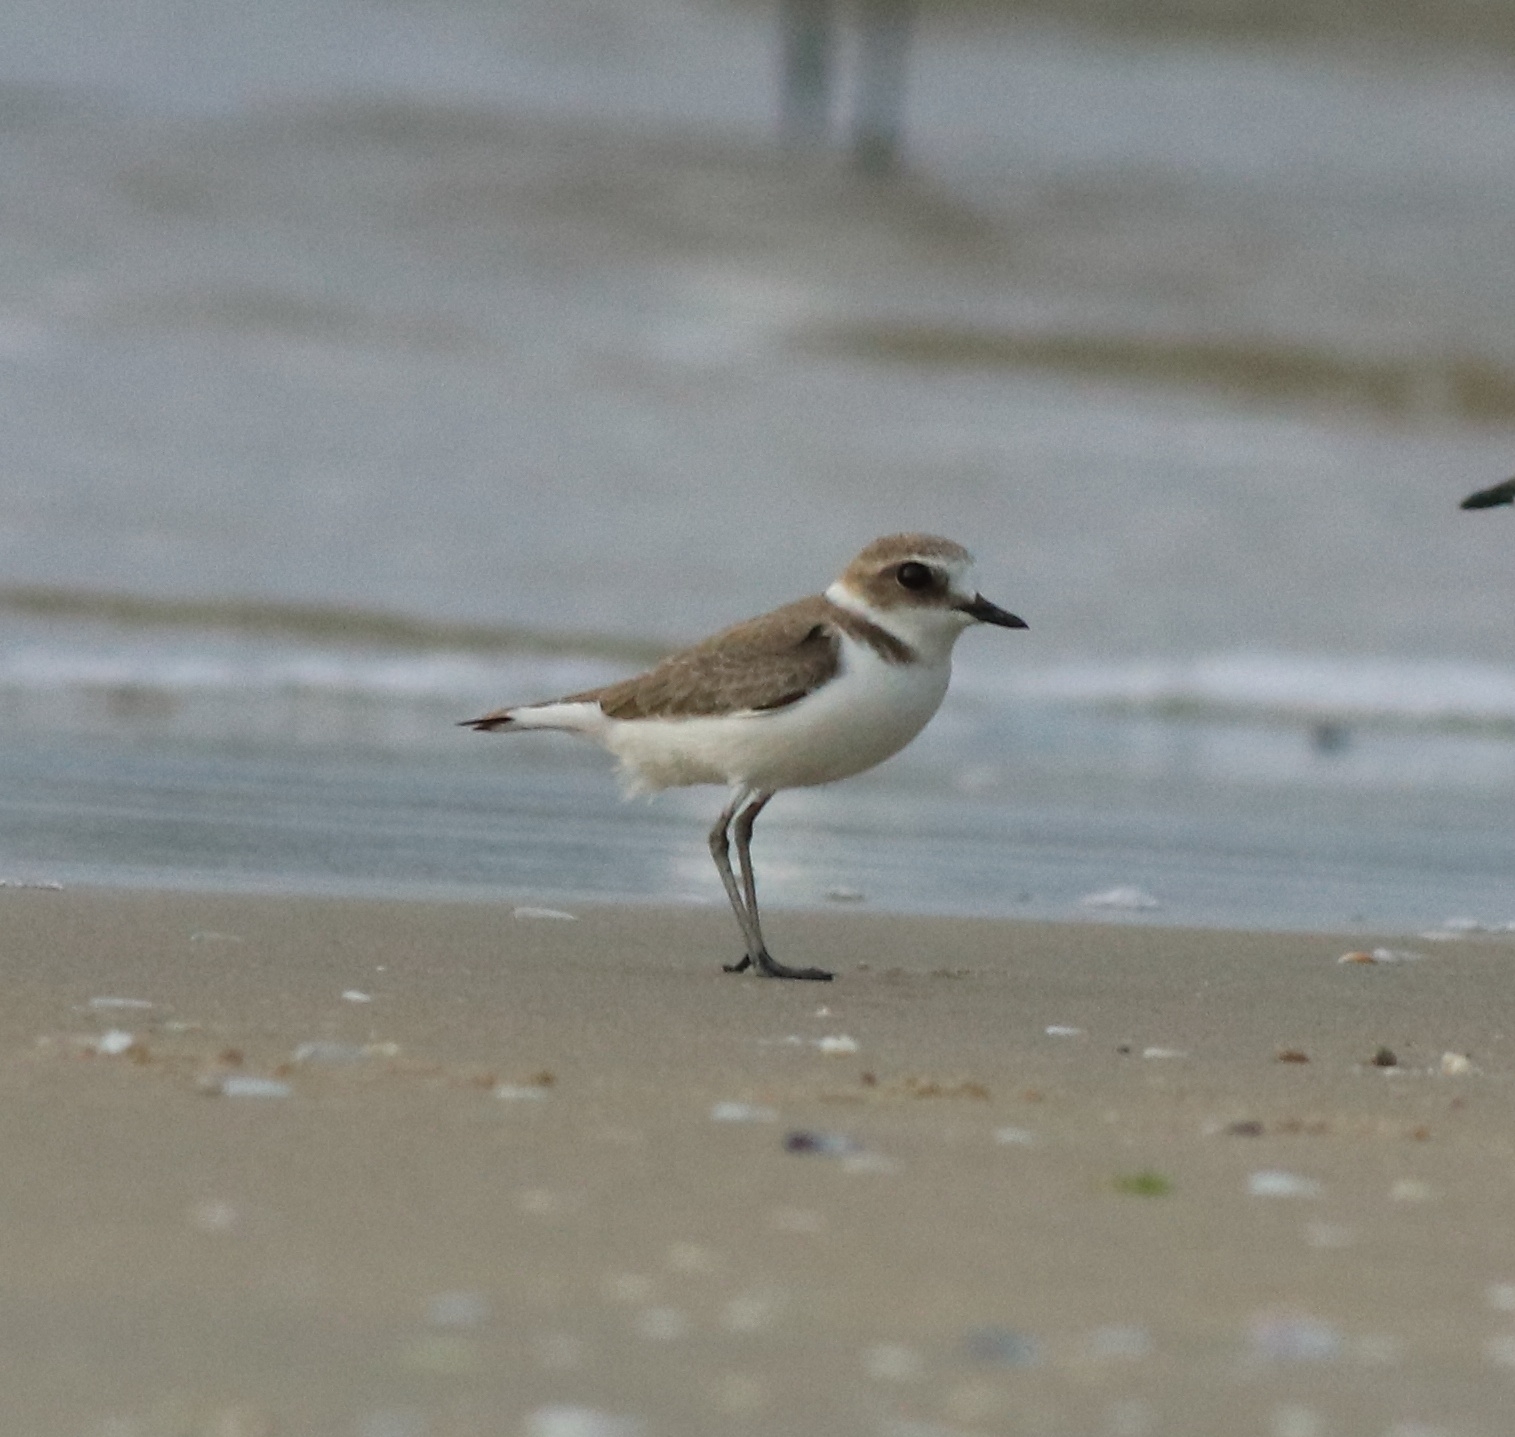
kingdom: Animalia
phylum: Chordata
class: Aves
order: Charadriiformes
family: Charadriidae
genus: Charadrius
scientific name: Charadrius alexandrinus
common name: Kentish plover
